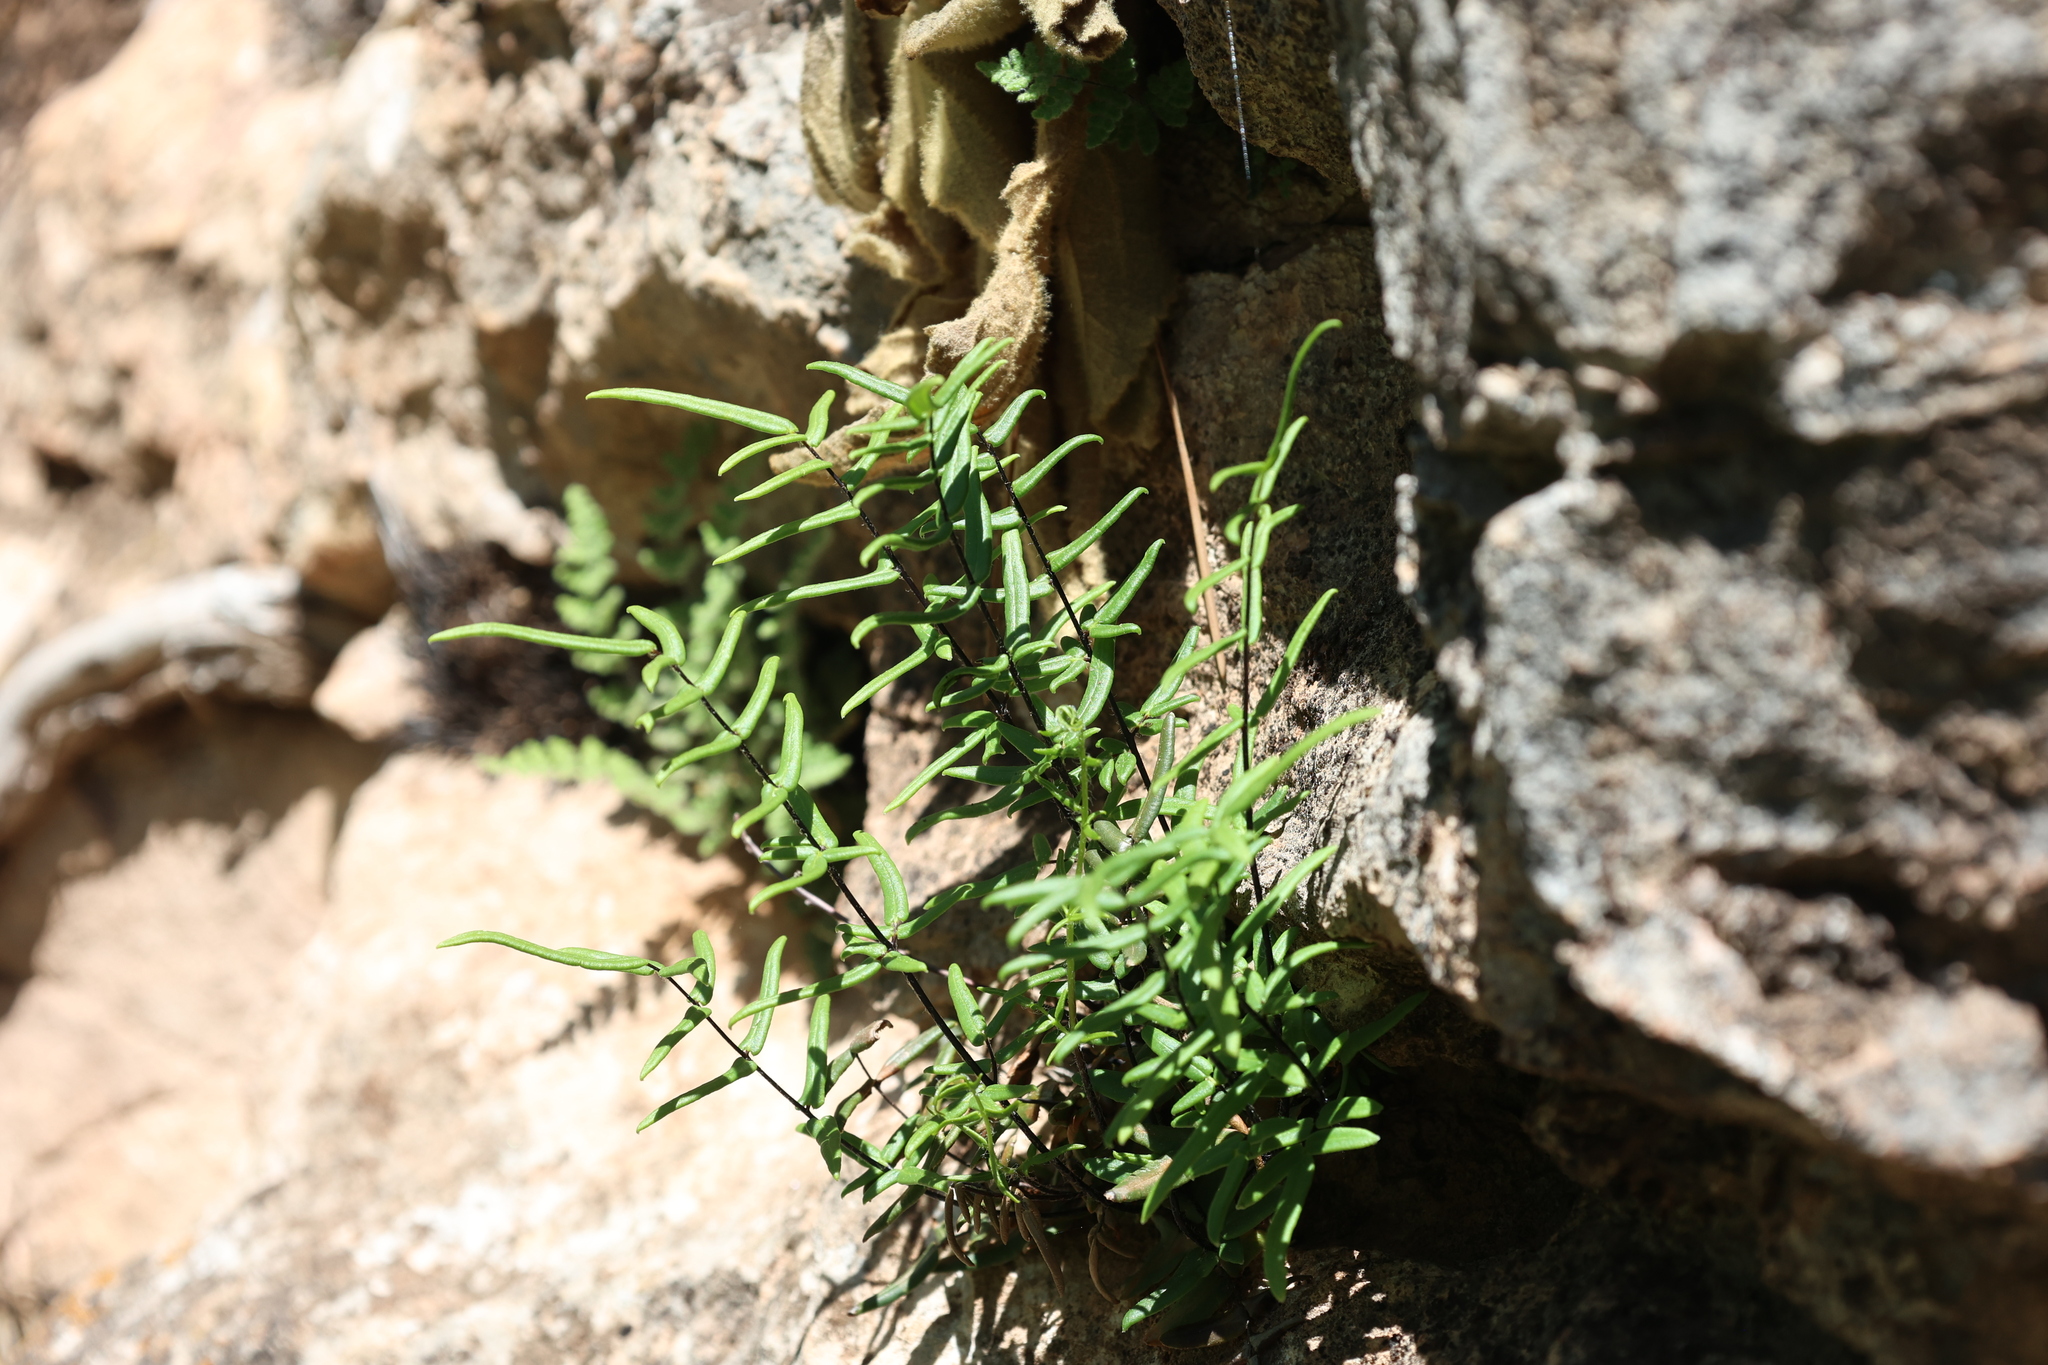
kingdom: Plantae
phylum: Tracheophyta
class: Polypodiopsida
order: Polypodiales
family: Pteridaceae
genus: Pellaea
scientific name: Pellaea atropurpurea
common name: Hairy cliffbrake
